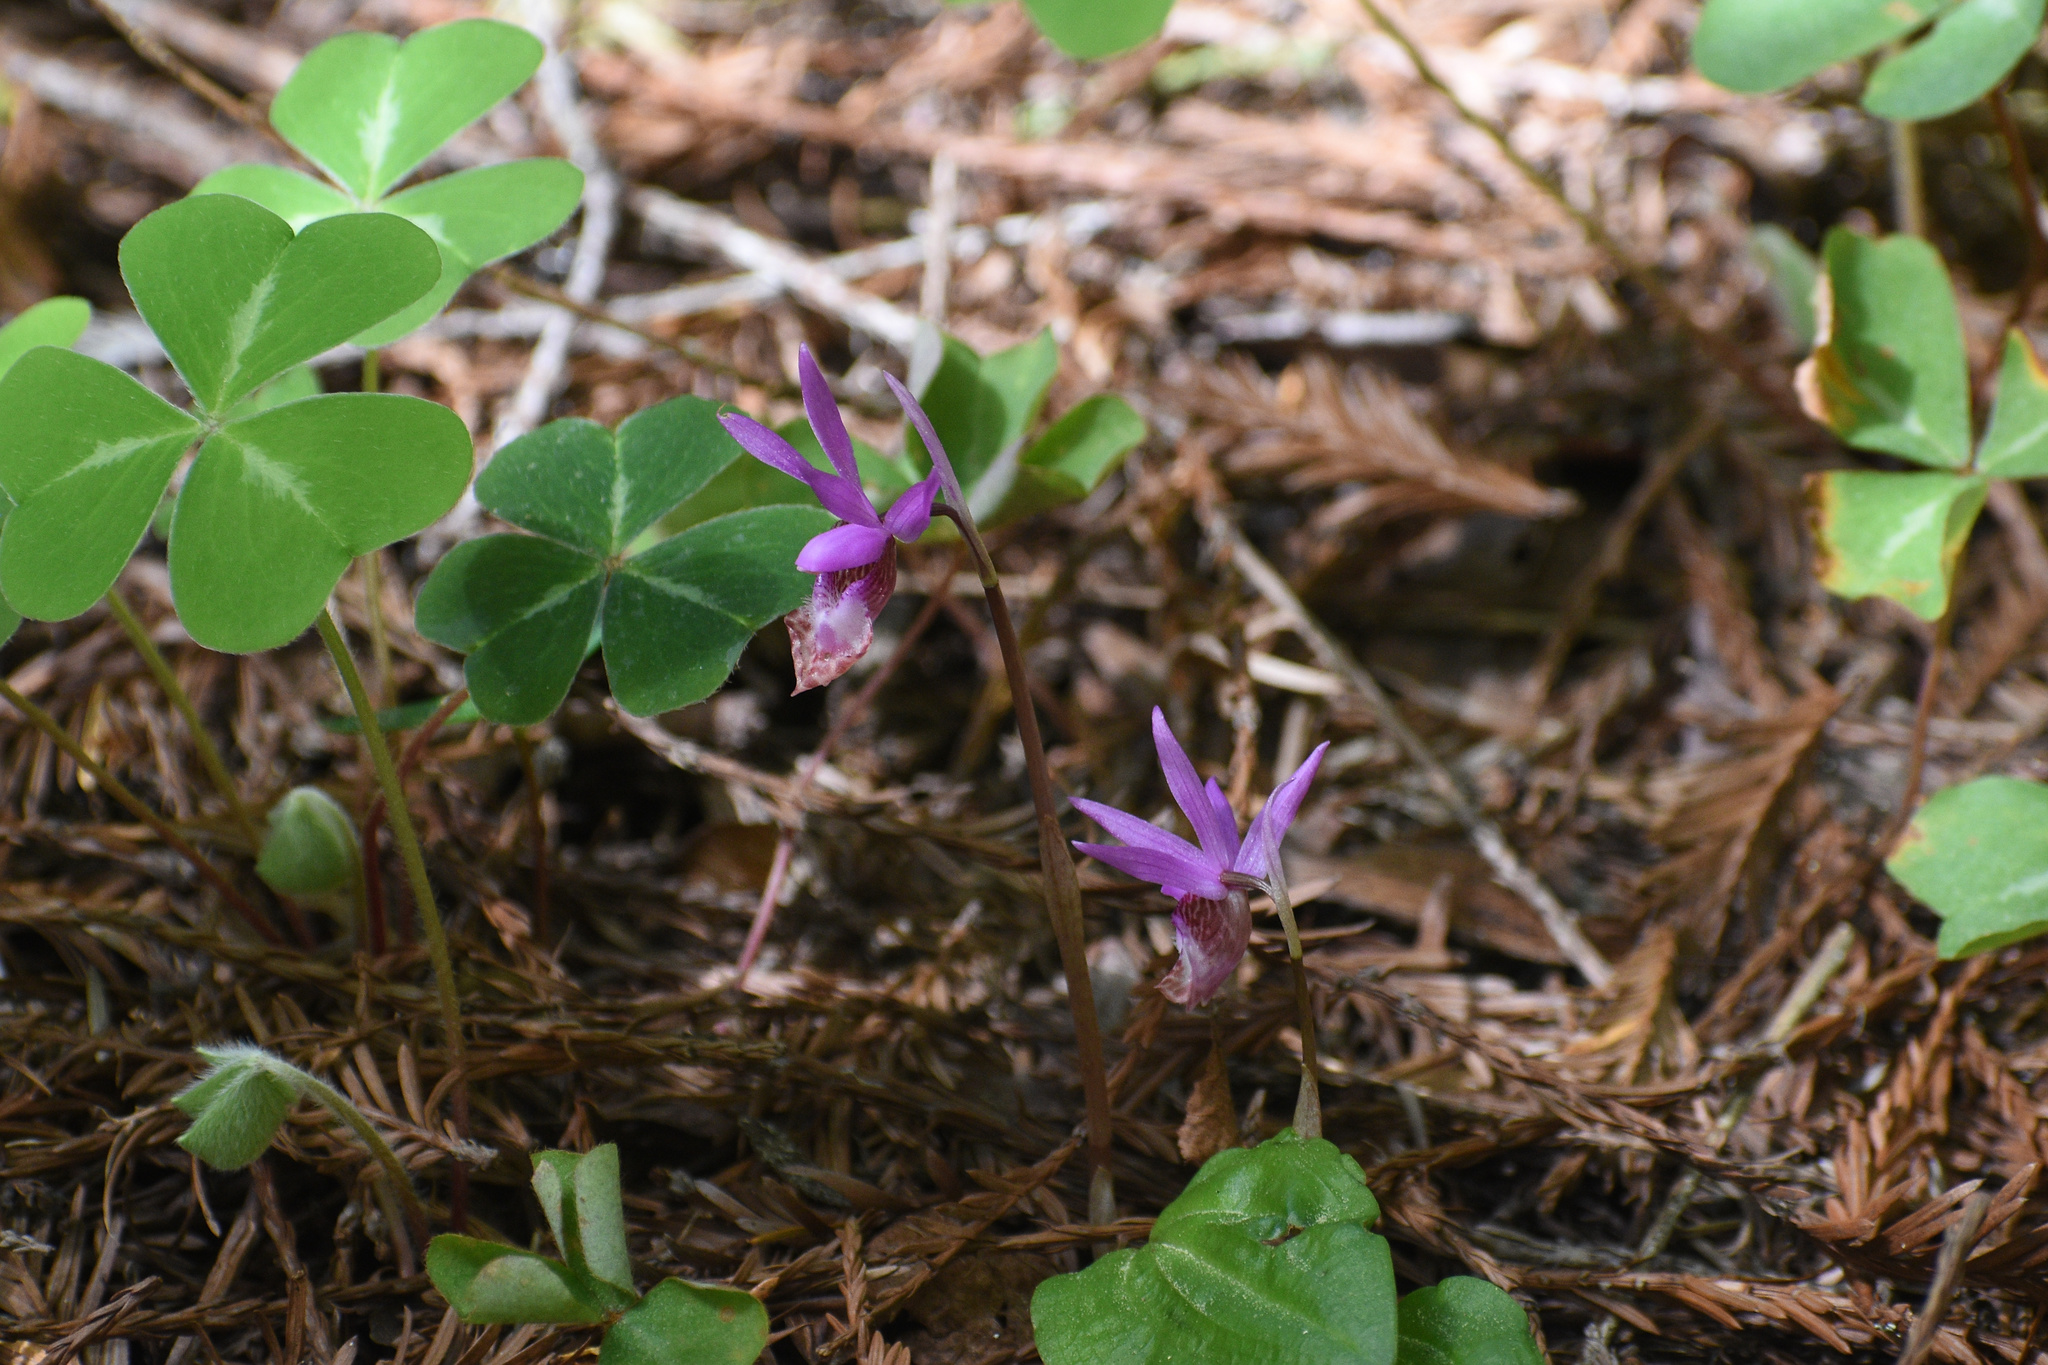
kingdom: Plantae
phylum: Tracheophyta
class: Liliopsida
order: Asparagales
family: Orchidaceae
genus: Calypso
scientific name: Calypso bulbosa
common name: Calypso
